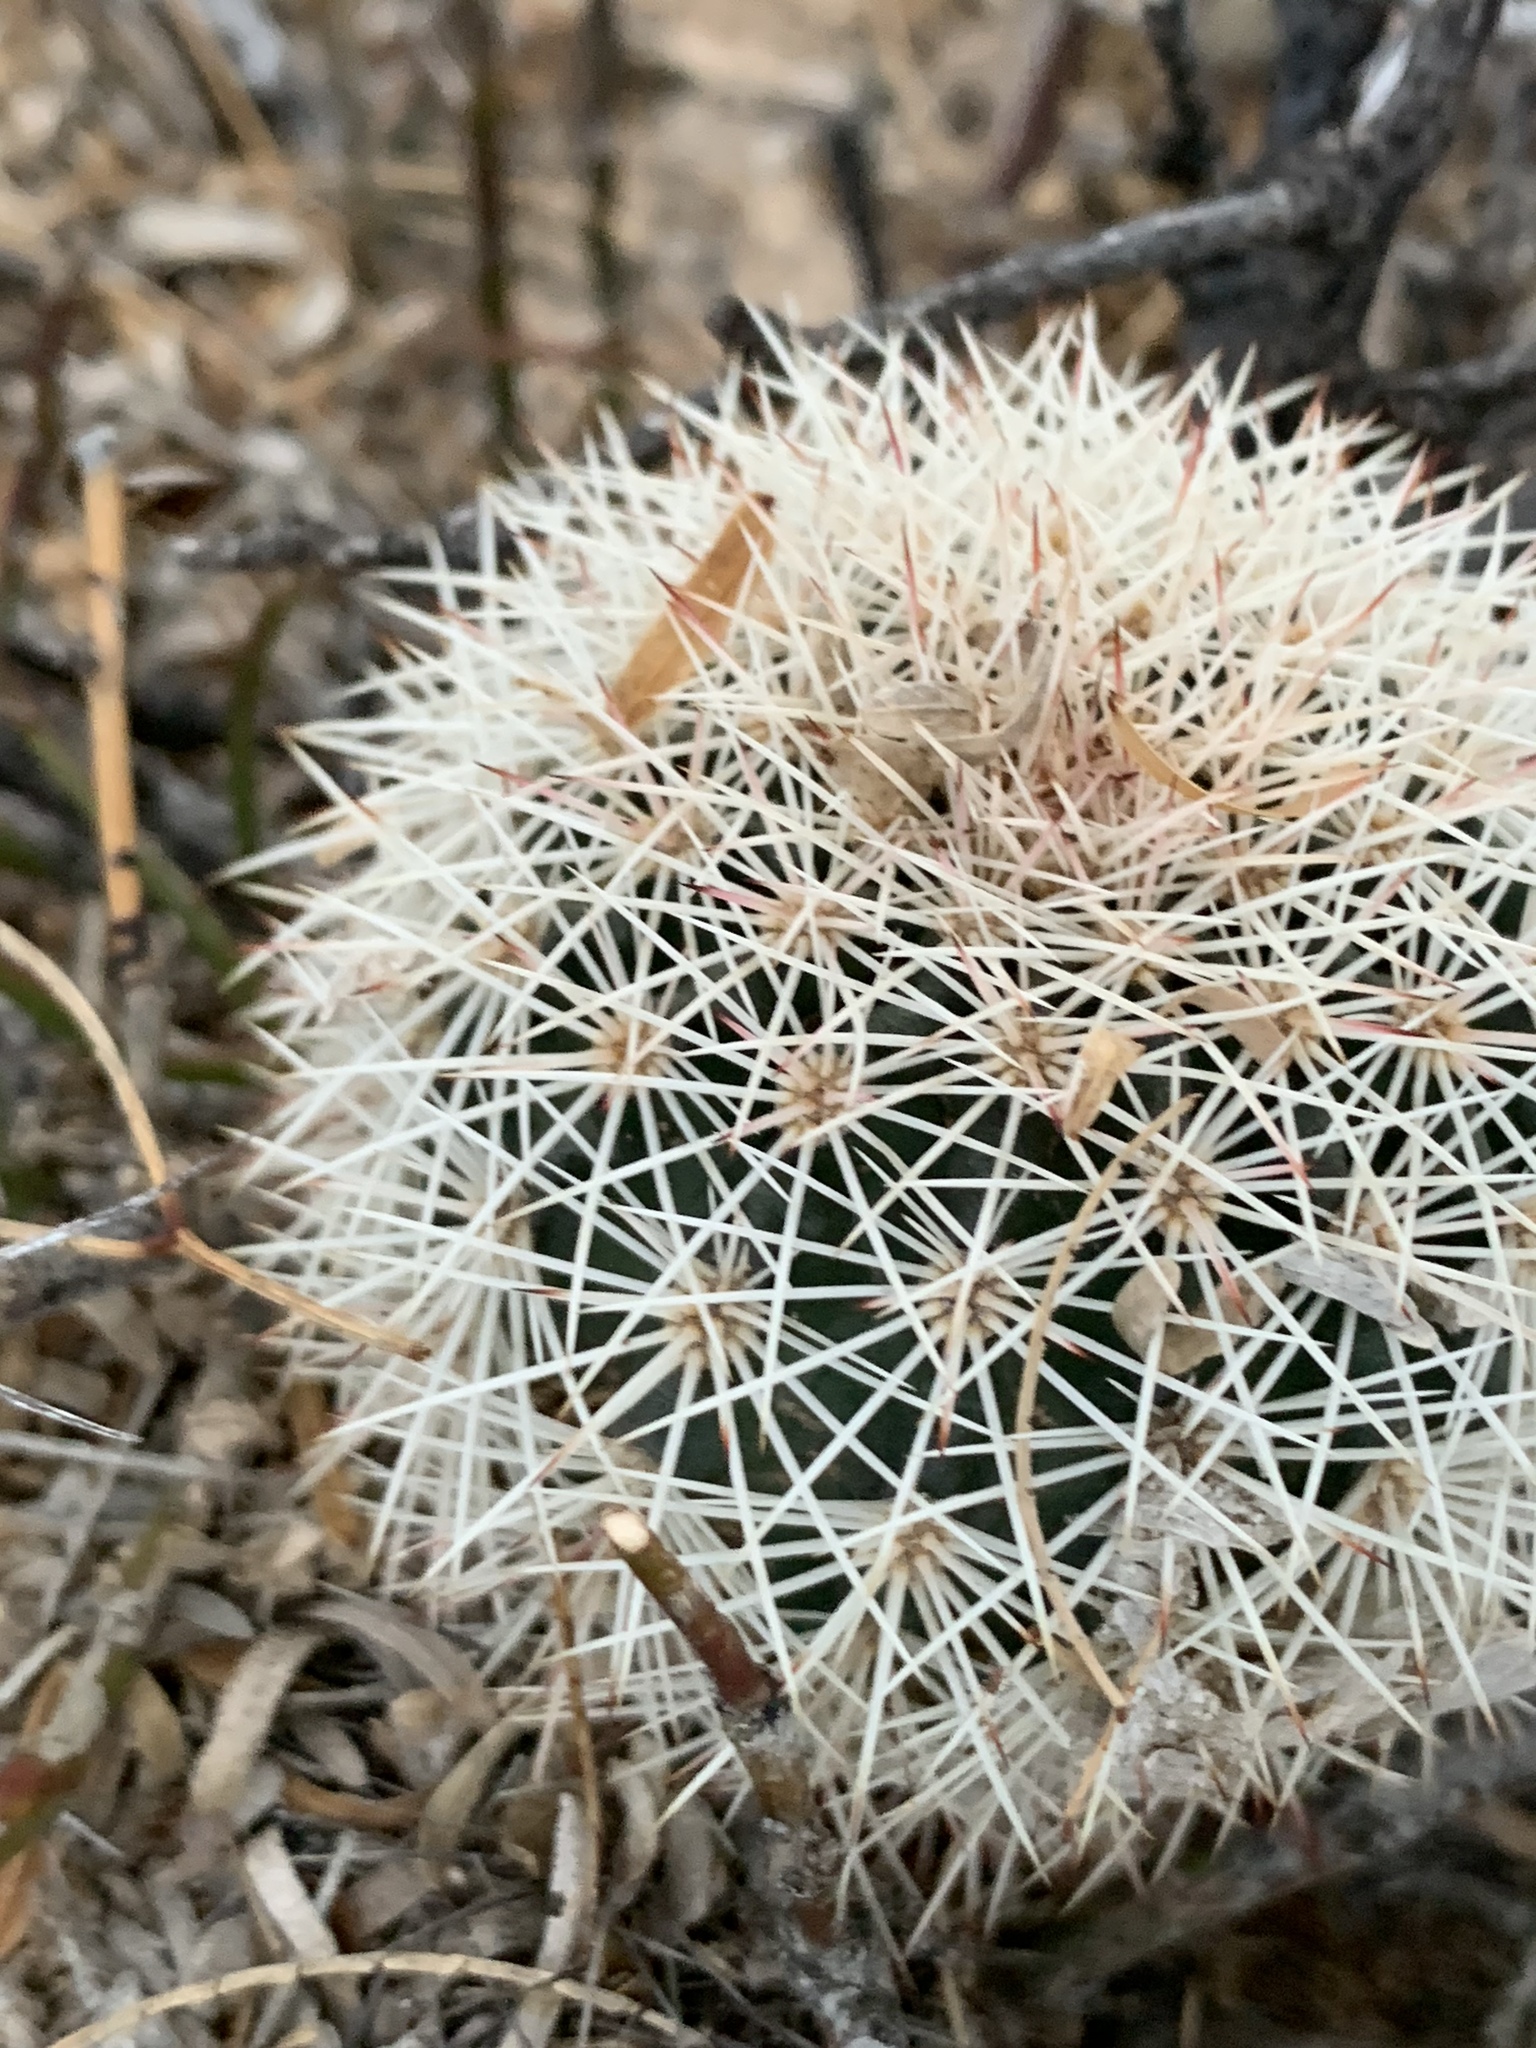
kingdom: Plantae
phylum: Tracheophyta
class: Magnoliopsida
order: Caryophyllales
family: Cactaceae
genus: Echinocereus
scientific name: Echinocereus dasyacanthus
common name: Spiny hedgehog cactus
